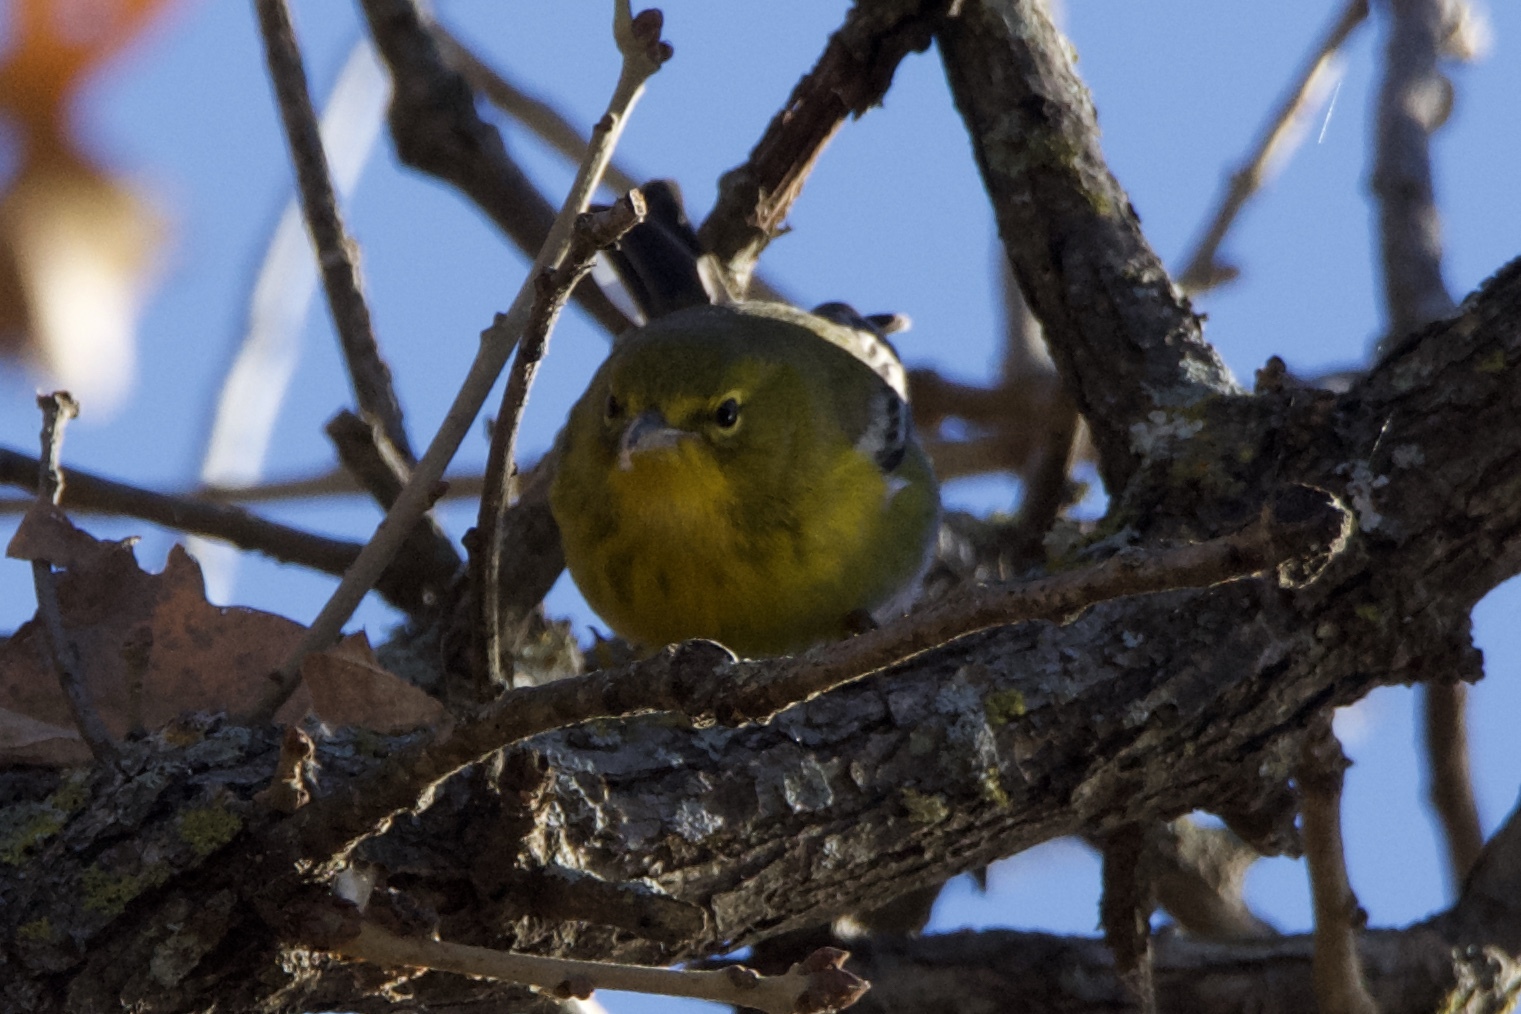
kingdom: Animalia
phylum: Chordata
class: Aves
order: Passeriformes
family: Parulidae
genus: Setophaga
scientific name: Setophaga pinus
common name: Pine warbler
